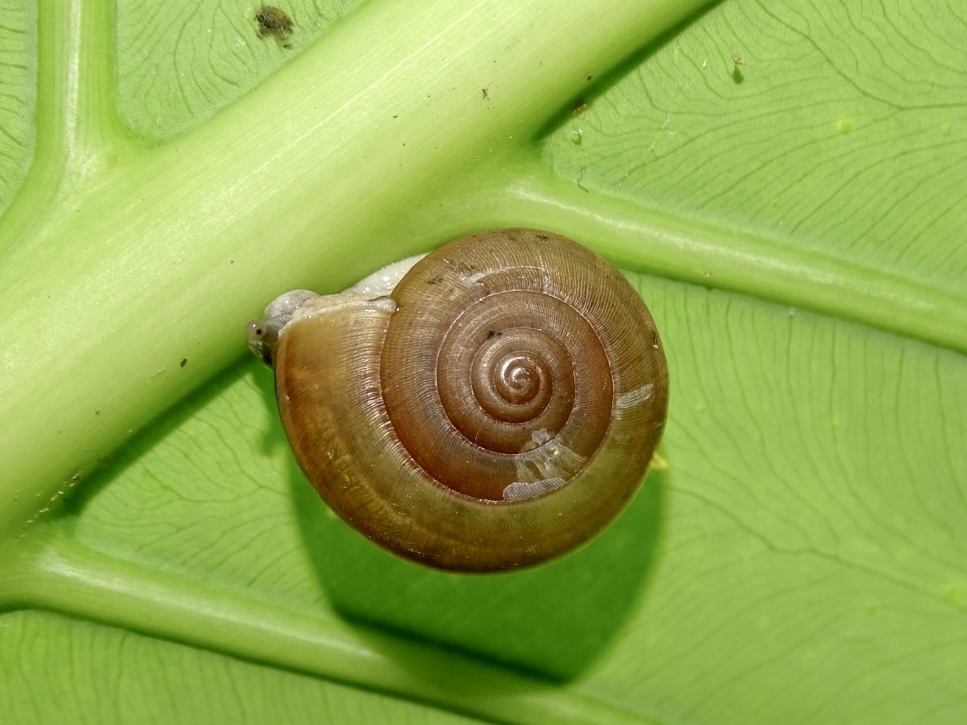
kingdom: Animalia
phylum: Mollusca
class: Gastropoda
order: Stylommatophora
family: Ariophantidae
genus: Sarika
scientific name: Sarika siamensis
